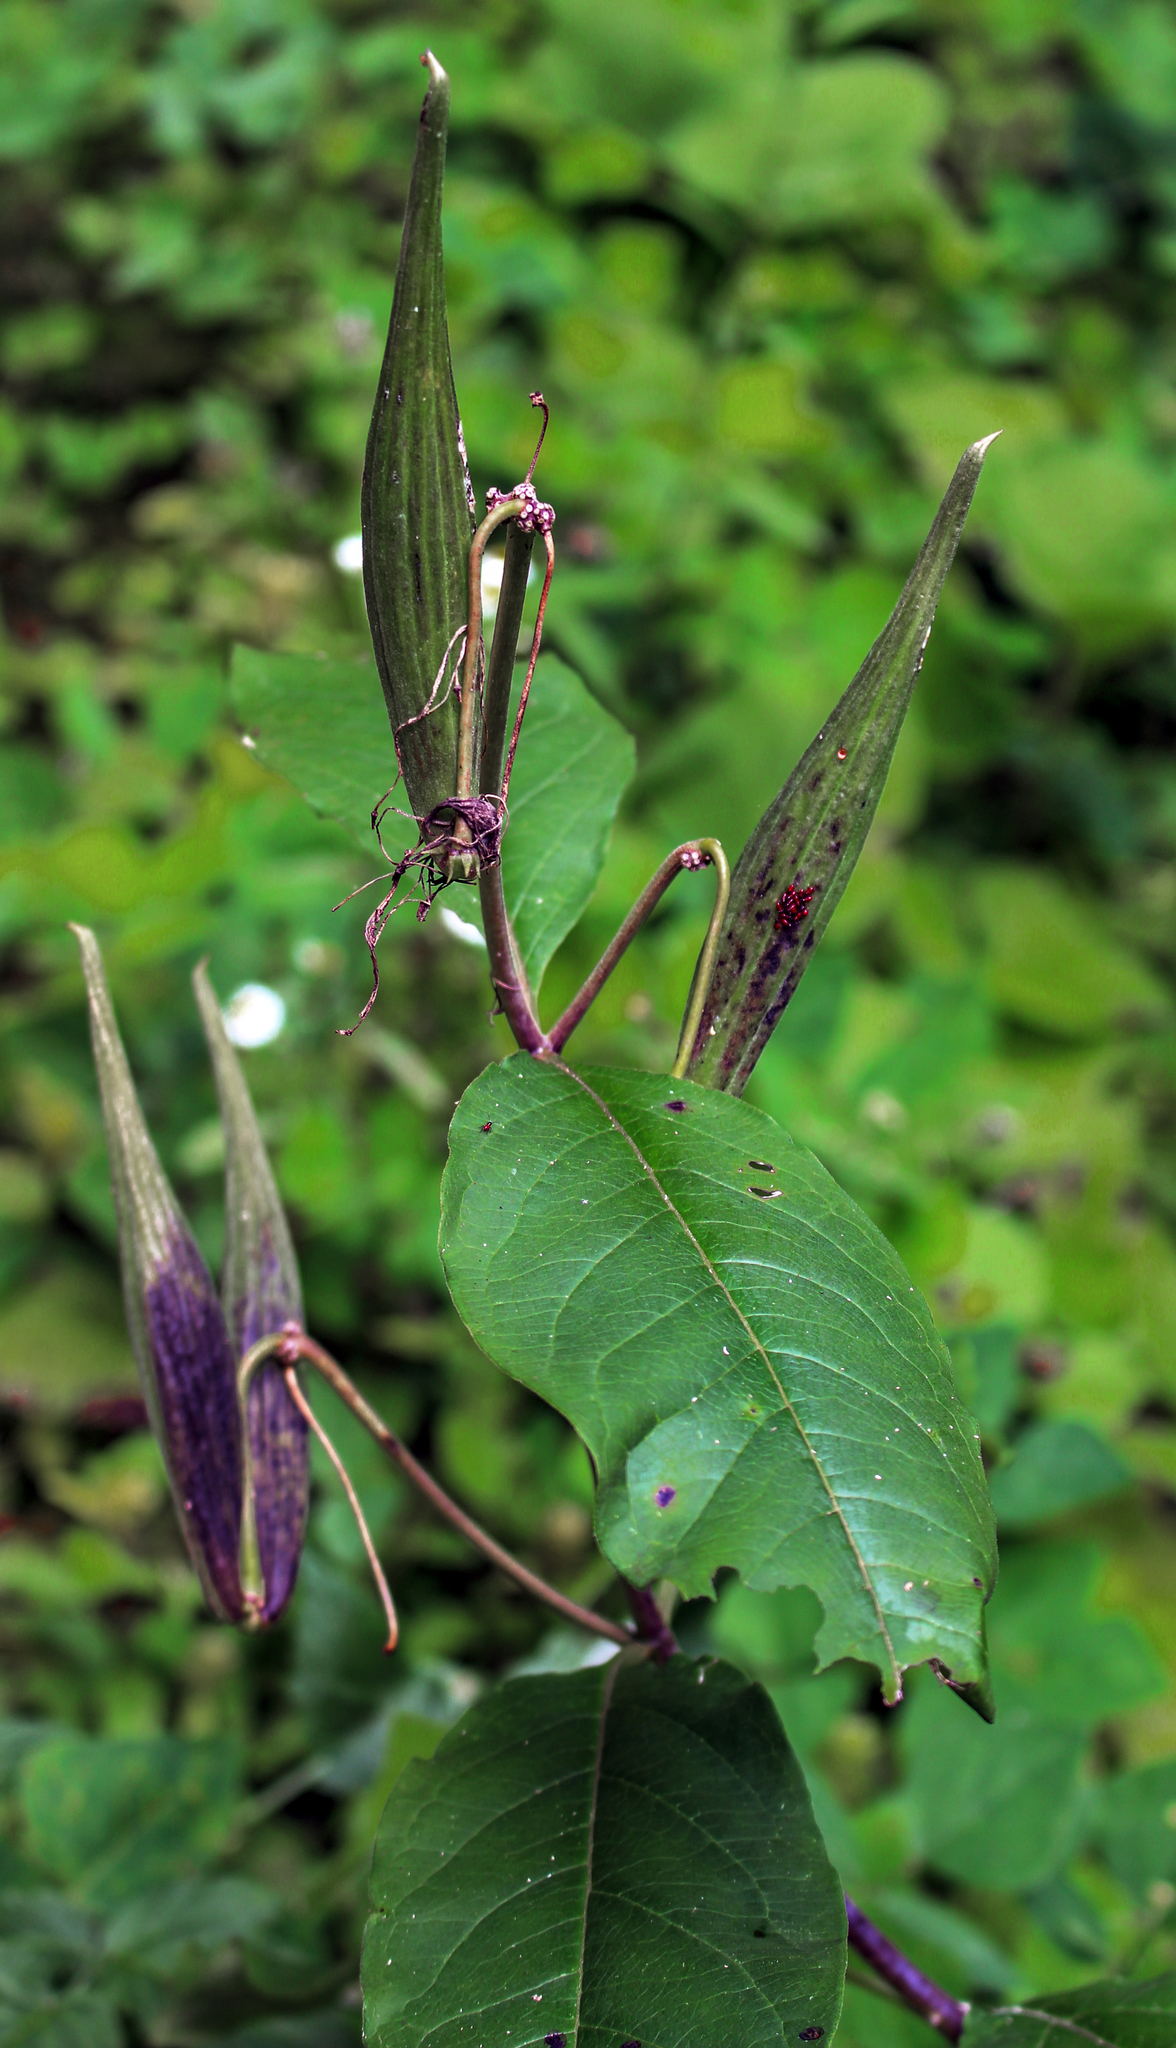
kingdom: Plantae
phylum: Tracheophyta
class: Magnoliopsida
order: Gentianales
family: Apocynaceae
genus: Asclepias
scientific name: Asclepias exaltata
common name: Poke milkweed
